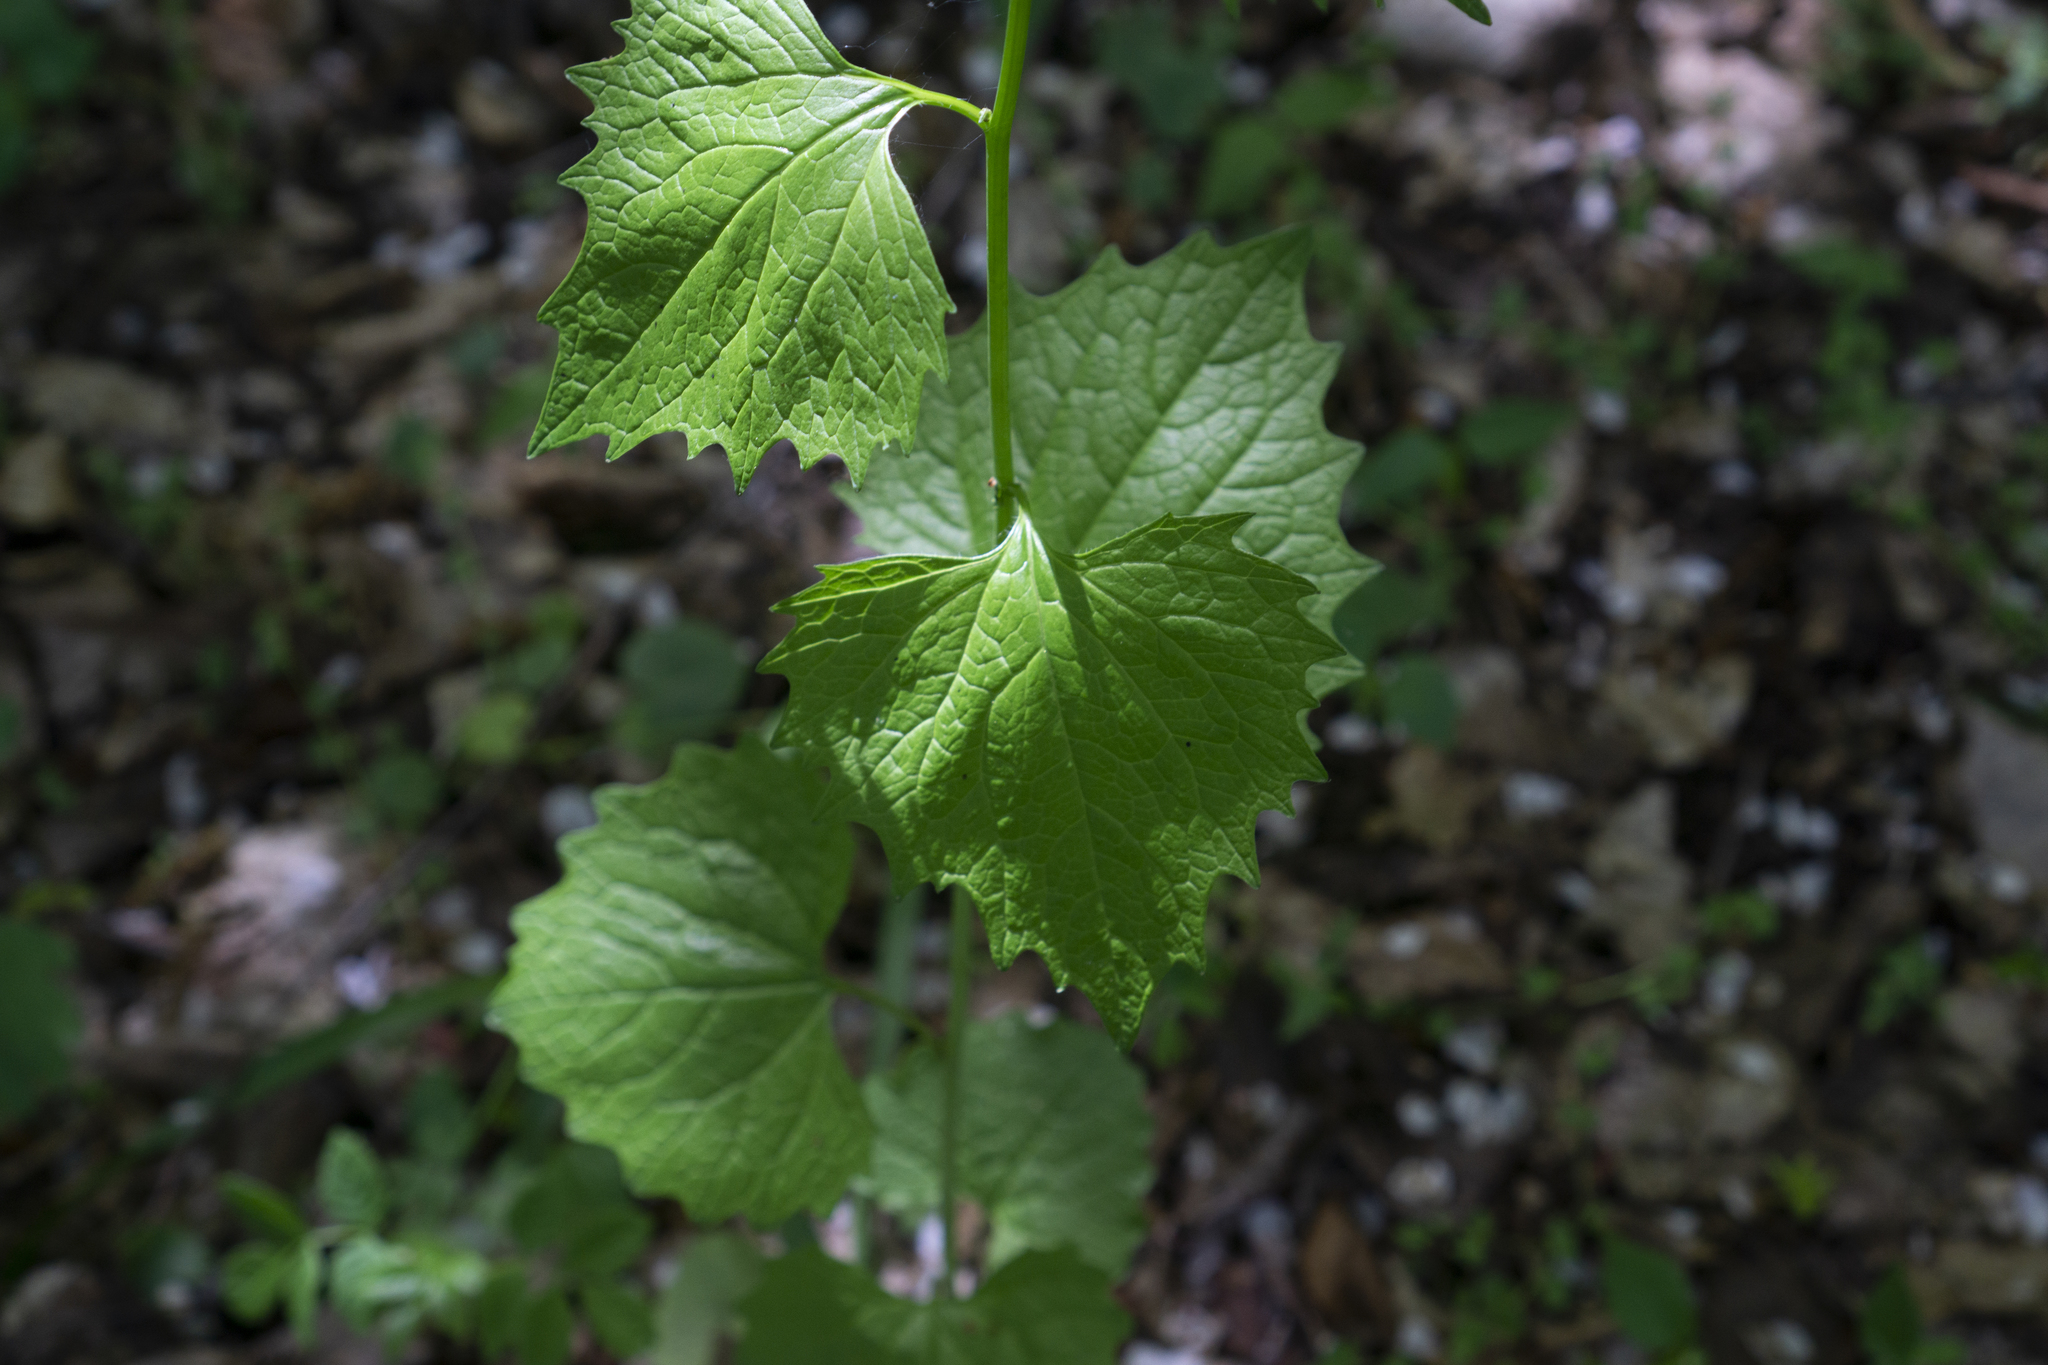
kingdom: Plantae
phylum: Tracheophyta
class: Magnoliopsida
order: Brassicales
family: Brassicaceae
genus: Alliaria
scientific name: Alliaria petiolata
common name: Garlic mustard
